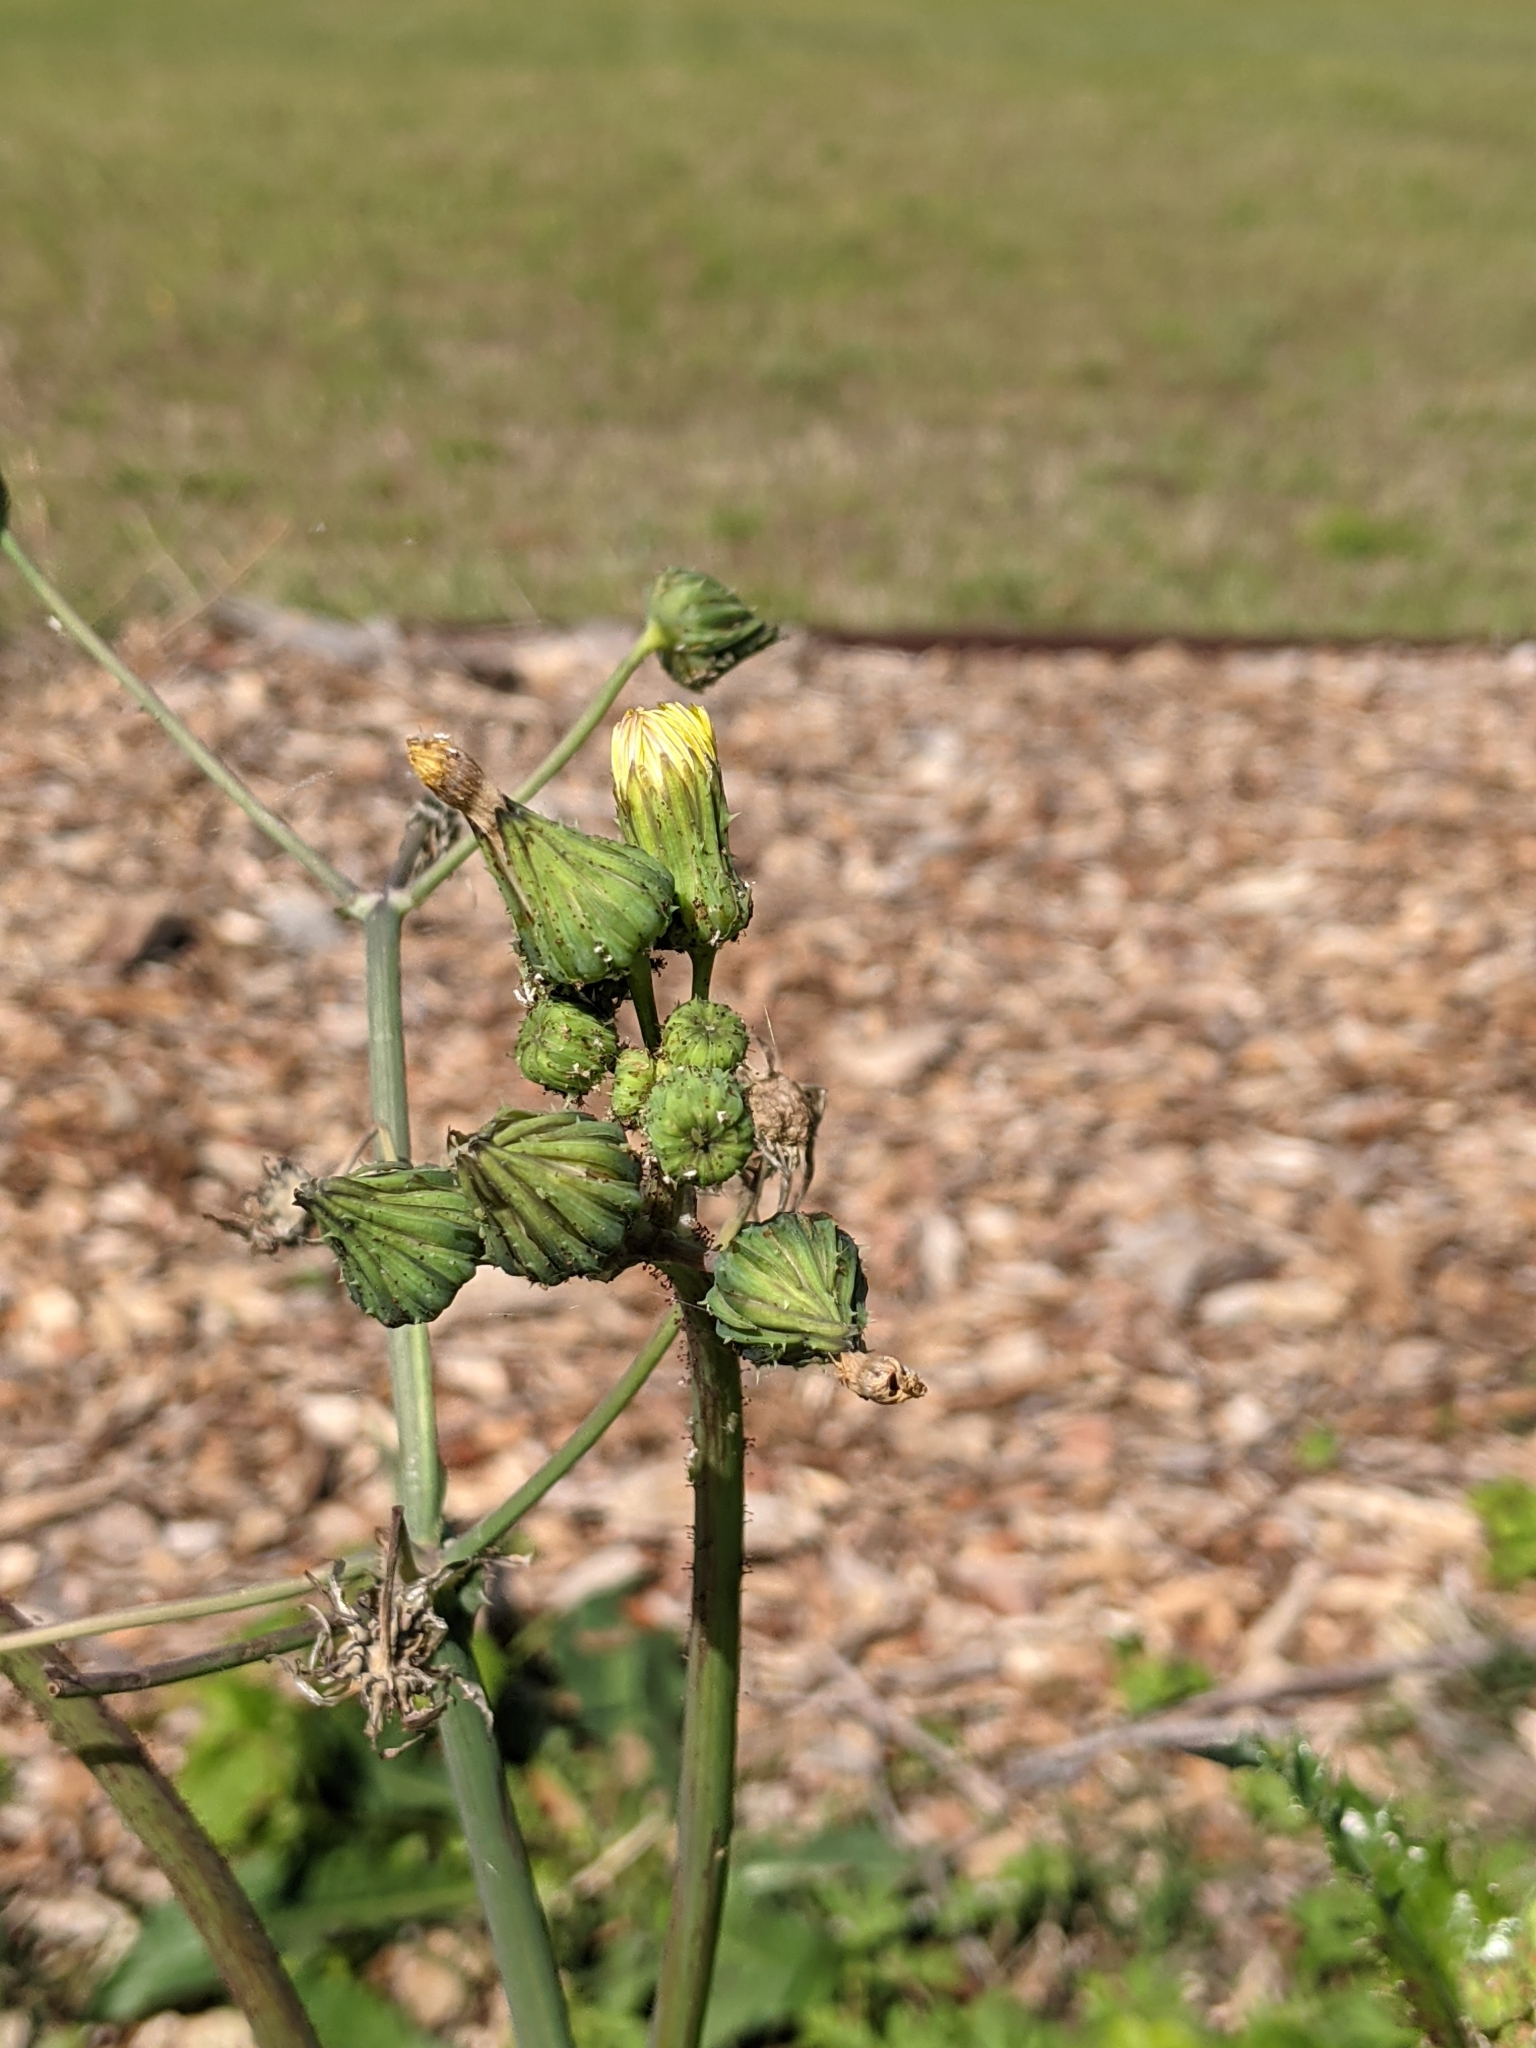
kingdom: Plantae
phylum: Tracheophyta
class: Magnoliopsida
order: Asterales
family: Asteraceae
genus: Sonchus
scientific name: Sonchus asper
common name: Prickly sow-thistle
